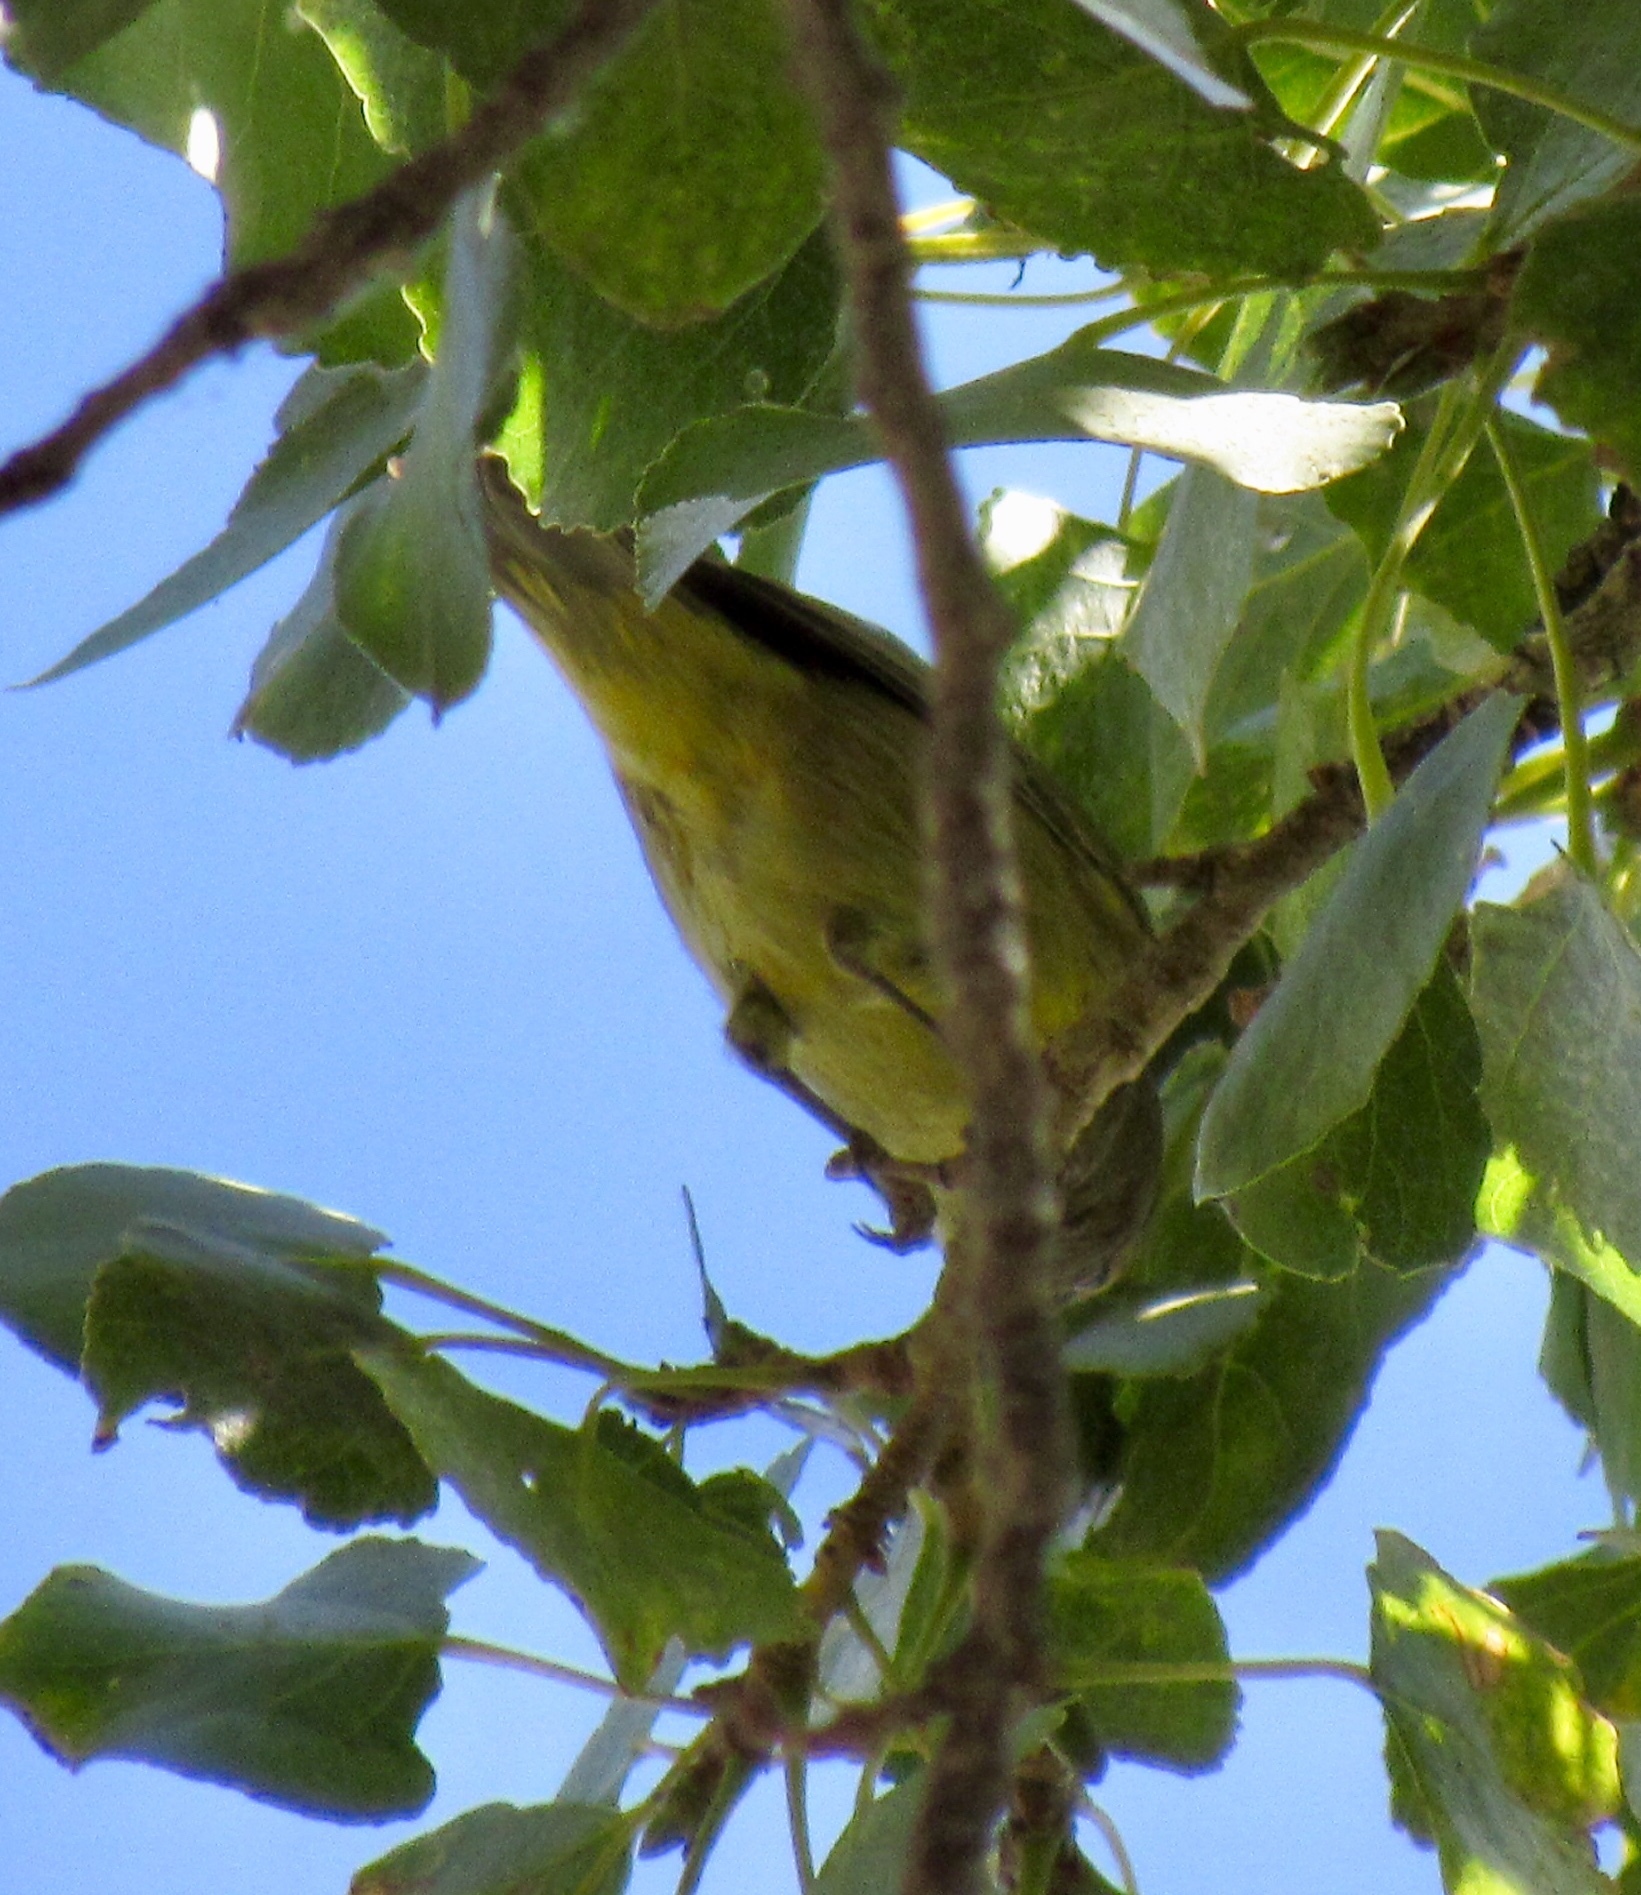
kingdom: Animalia
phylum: Chordata
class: Aves
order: Passeriformes
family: Parulidae
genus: Leiothlypis
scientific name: Leiothlypis celata
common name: Orange-crowned warbler
